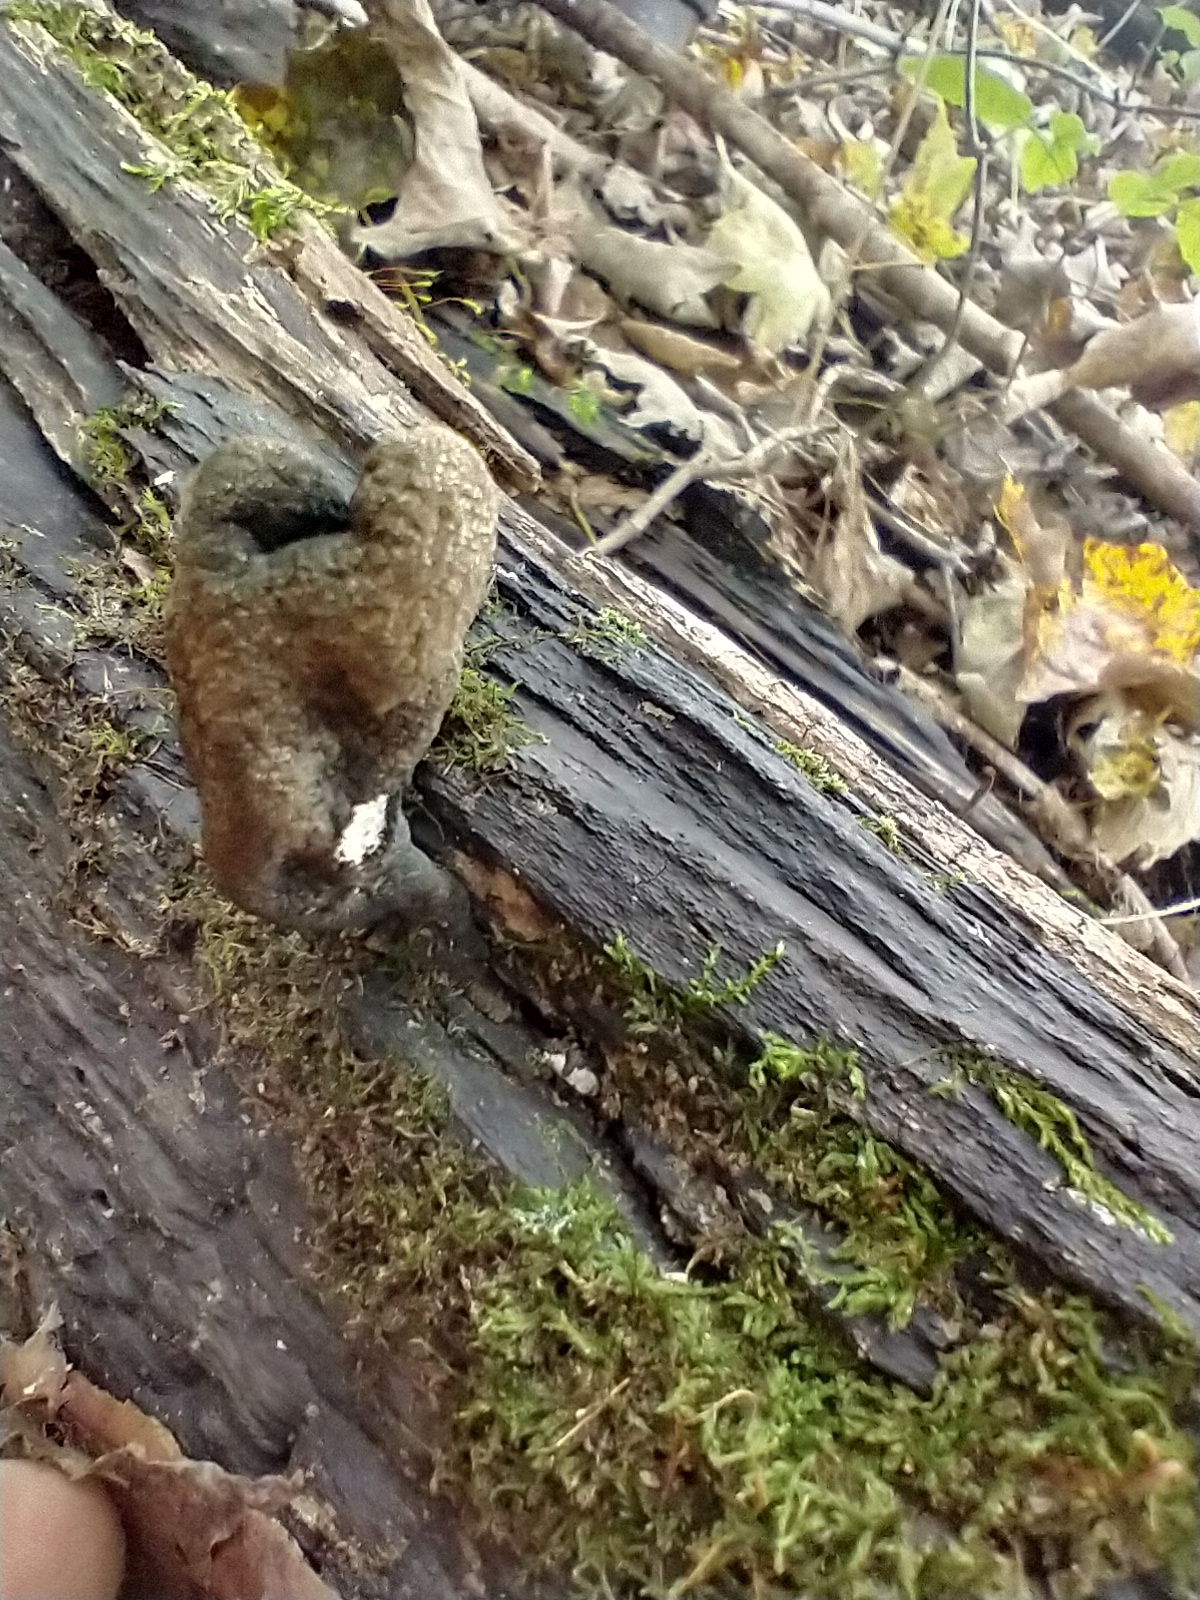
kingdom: Fungi
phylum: Ascomycota
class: Sordariomycetes
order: Xylariales
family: Xylariaceae
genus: Xylaria
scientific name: Xylaria longipes
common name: Dead moll's fingers
